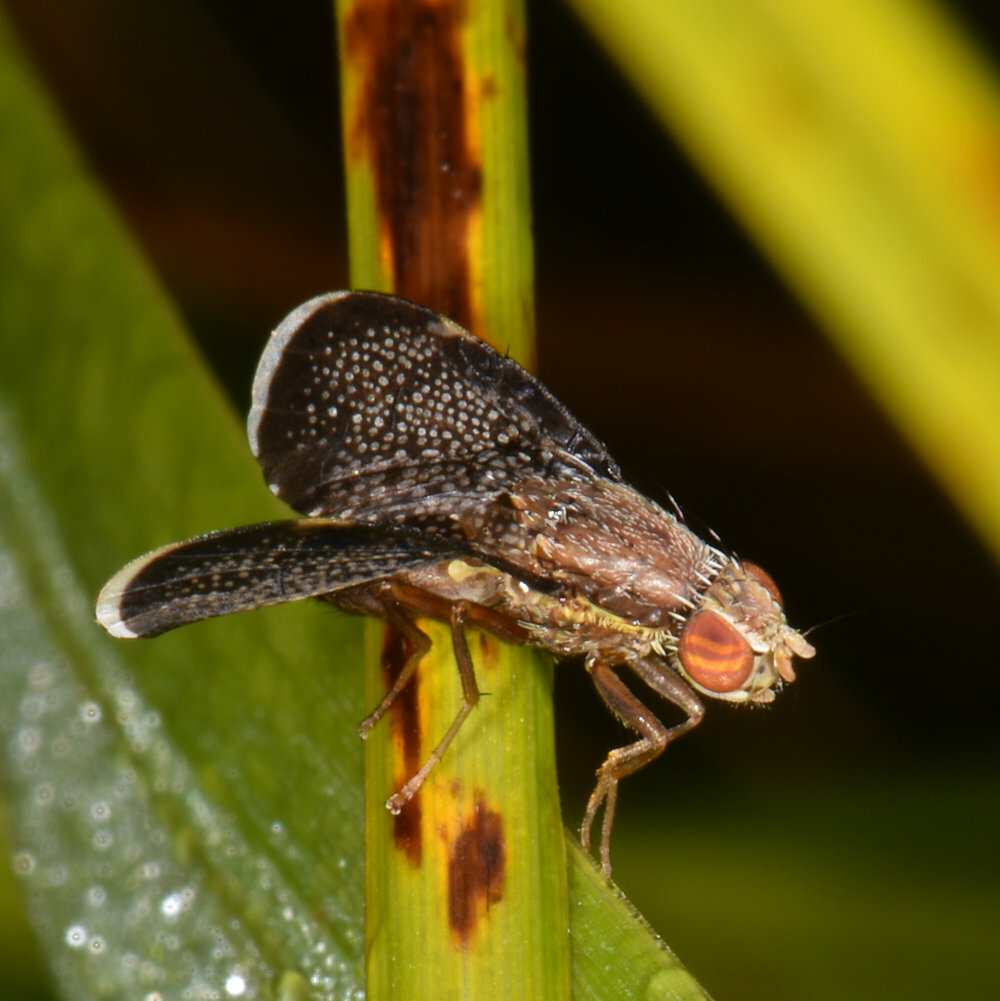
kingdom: Animalia
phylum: Arthropoda
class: Insecta
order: Diptera
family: Tephritidae
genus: Eutreta
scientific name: Eutreta novaeboracensis
